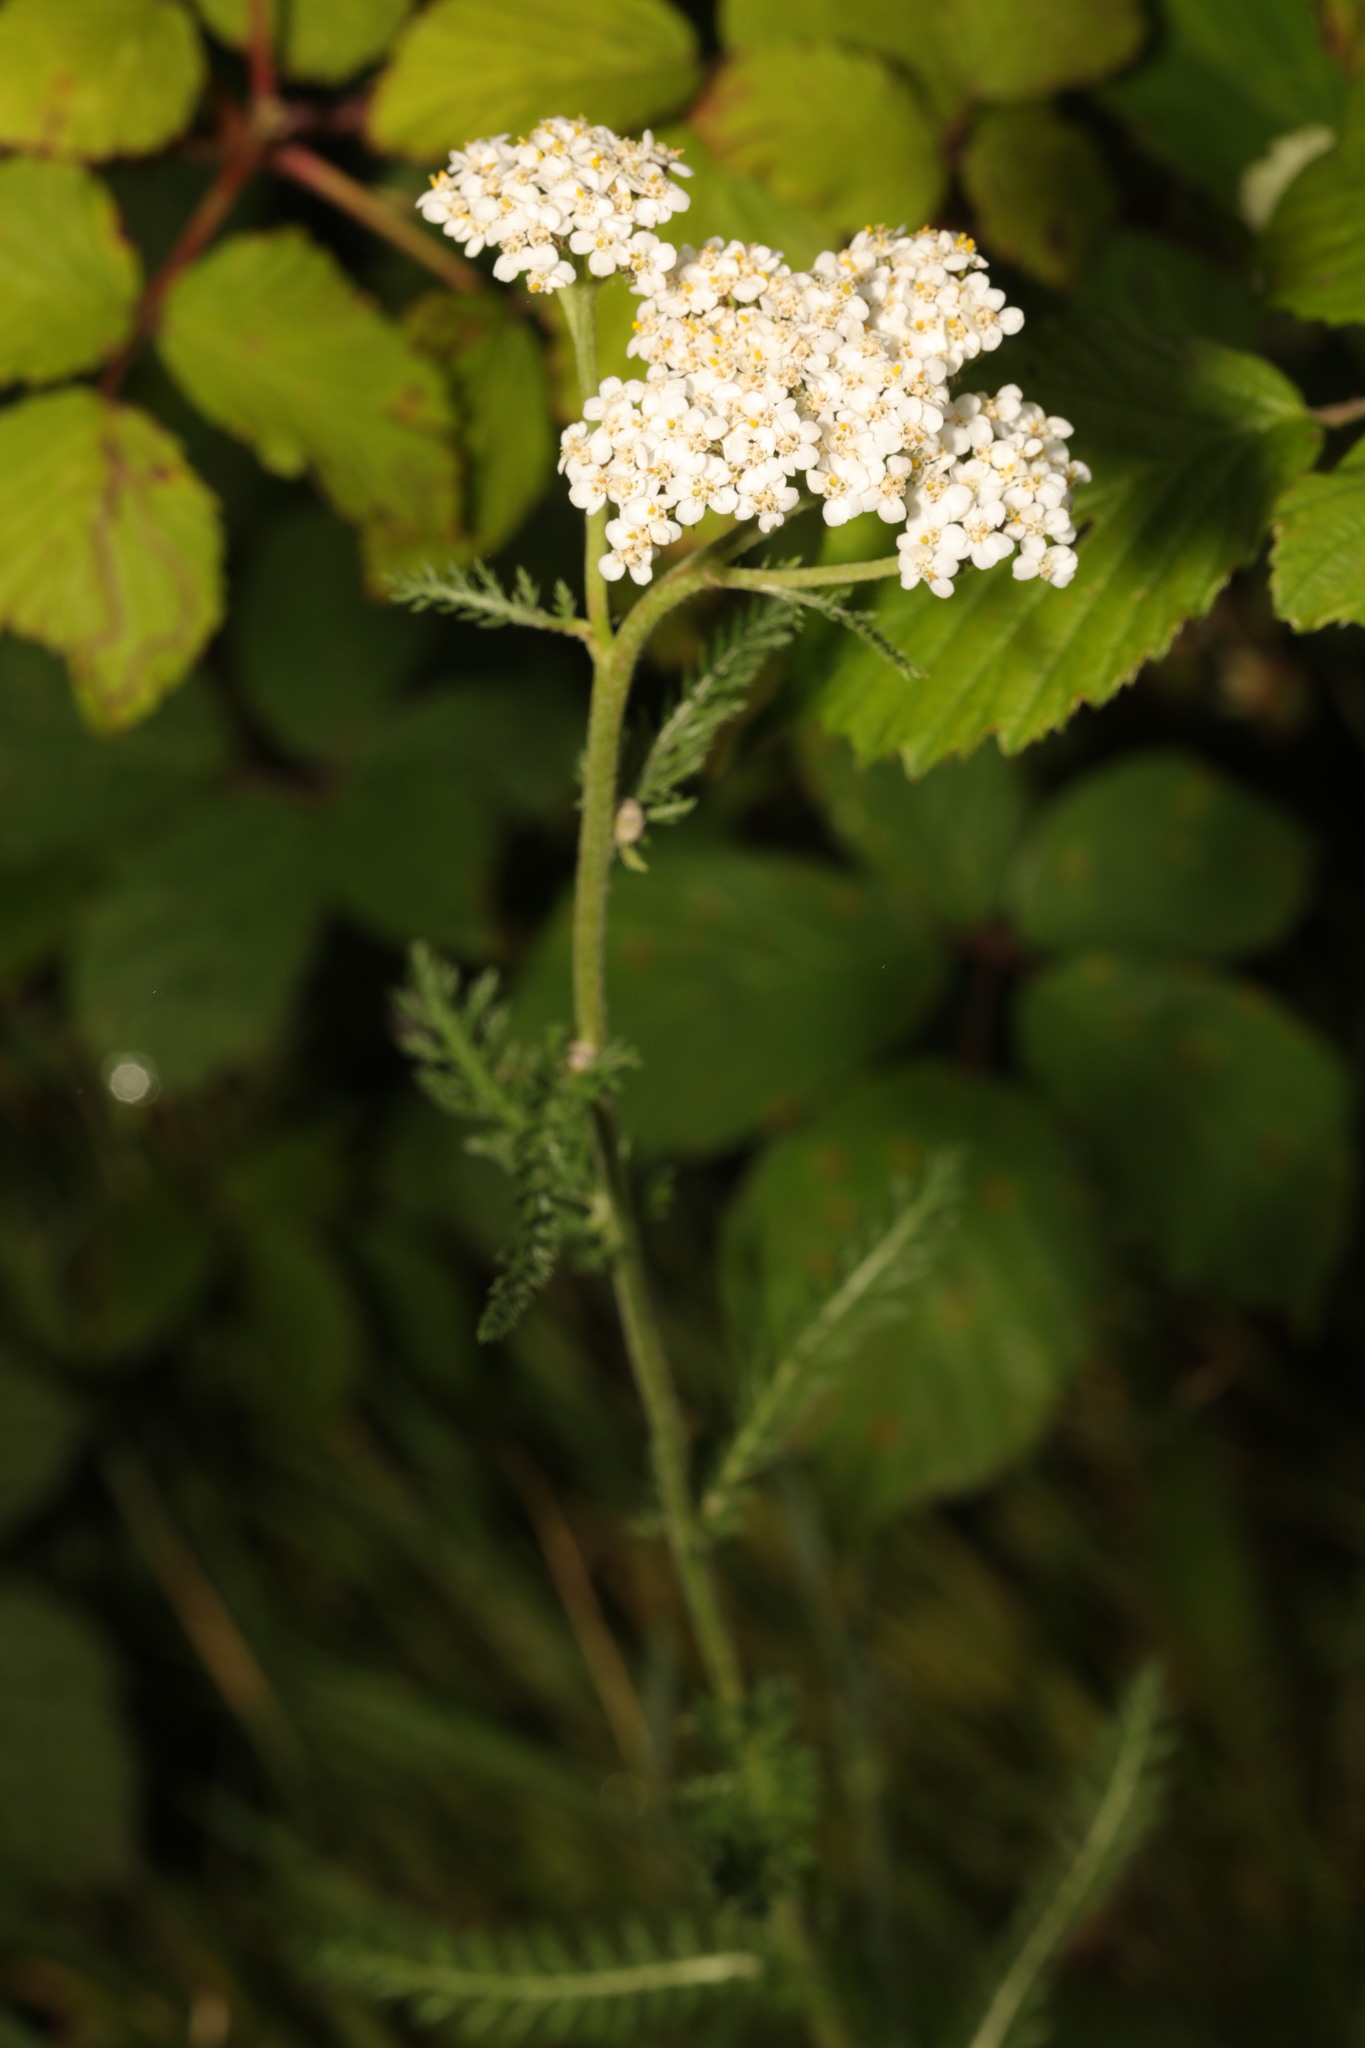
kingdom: Plantae
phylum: Tracheophyta
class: Magnoliopsida
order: Asterales
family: Asteraceae
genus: Achillea
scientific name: Achillea millefolium
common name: Yarrow
